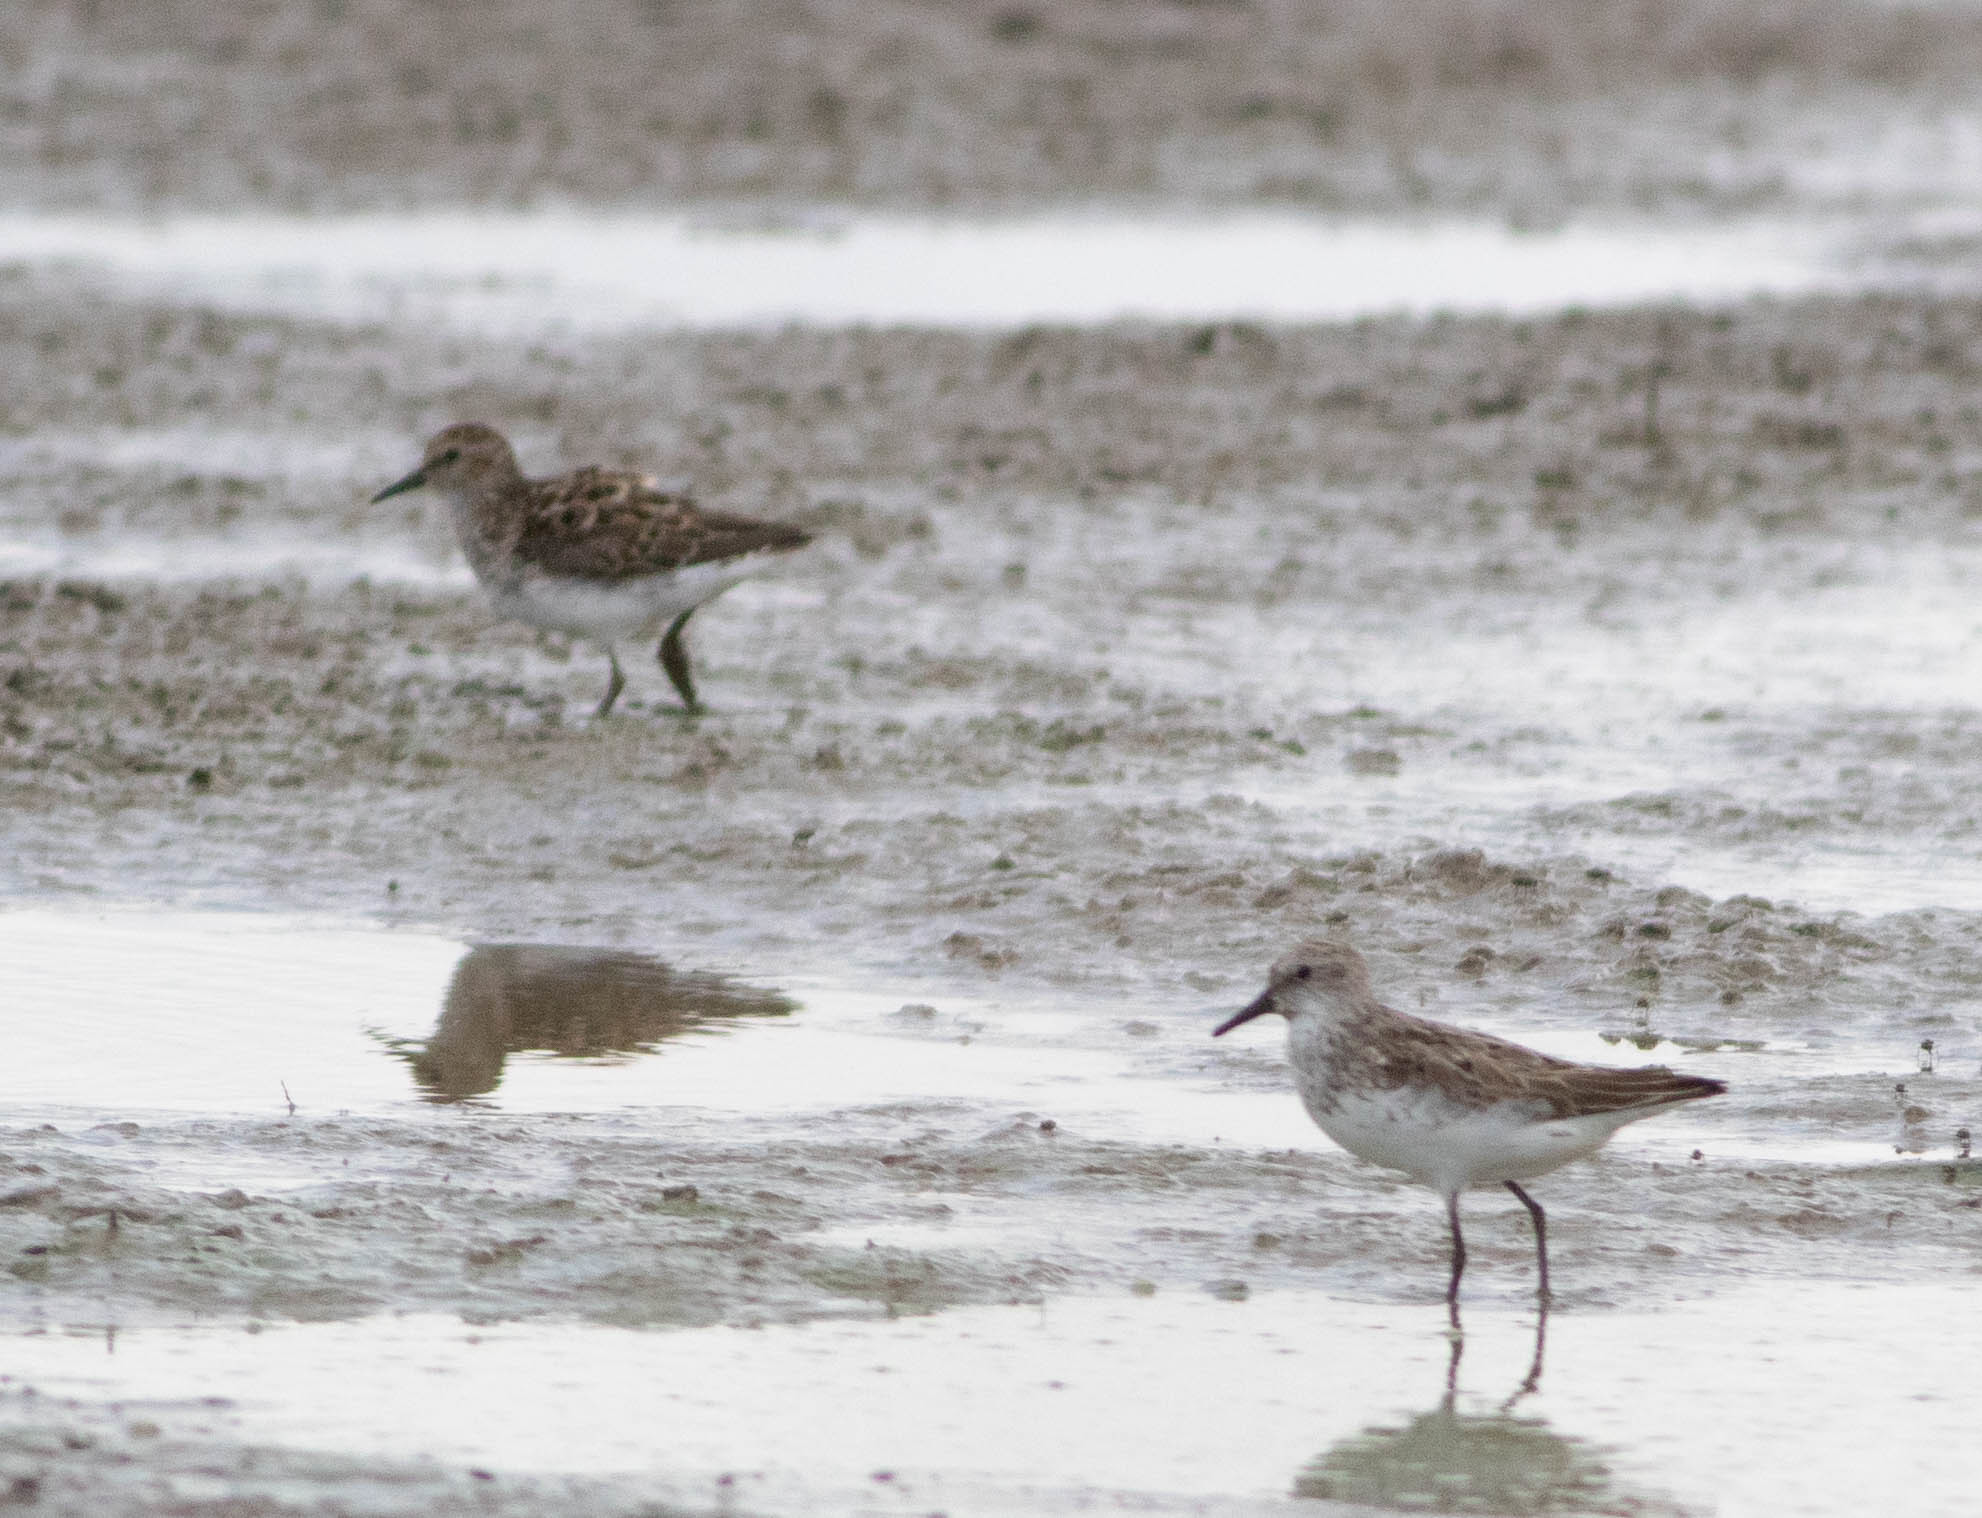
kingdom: Animalia
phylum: Chordata
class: Aves
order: Charadriiformes
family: Scolopacidae
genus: Calidris
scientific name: Calidris pusilla
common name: Semipalmated sandpiper
